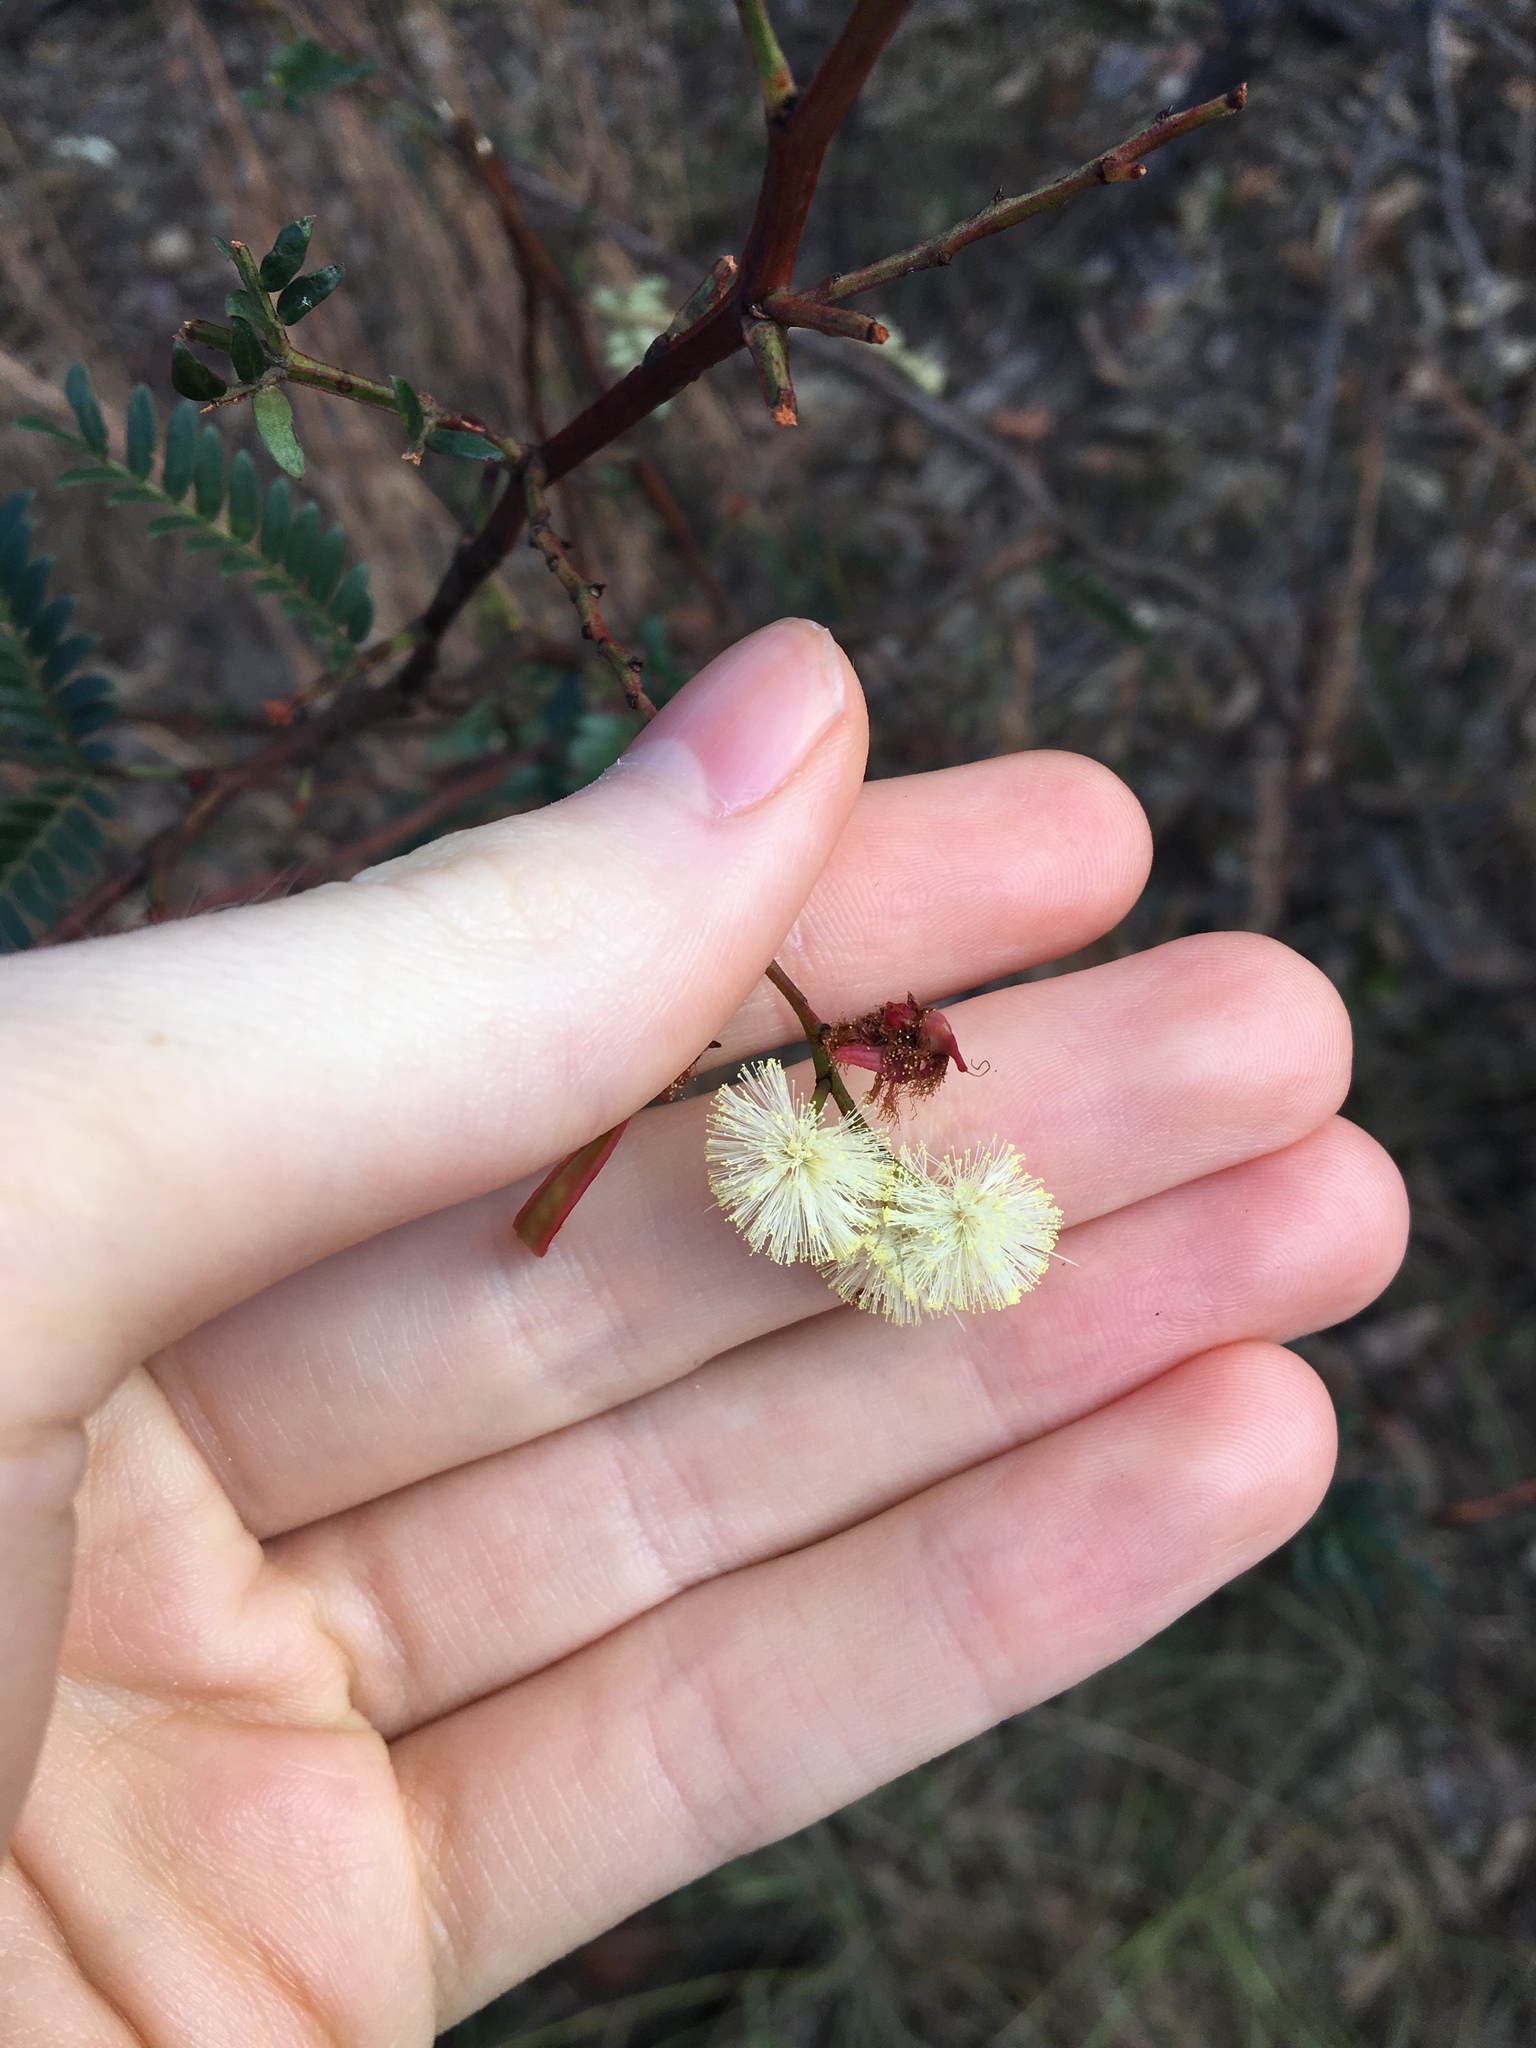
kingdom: Plantae
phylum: Tracheophyta
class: Magnoliopsida
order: Fabales
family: Fabaceae
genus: Acacia
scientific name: Acacia terminalis
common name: Cedar wattle
